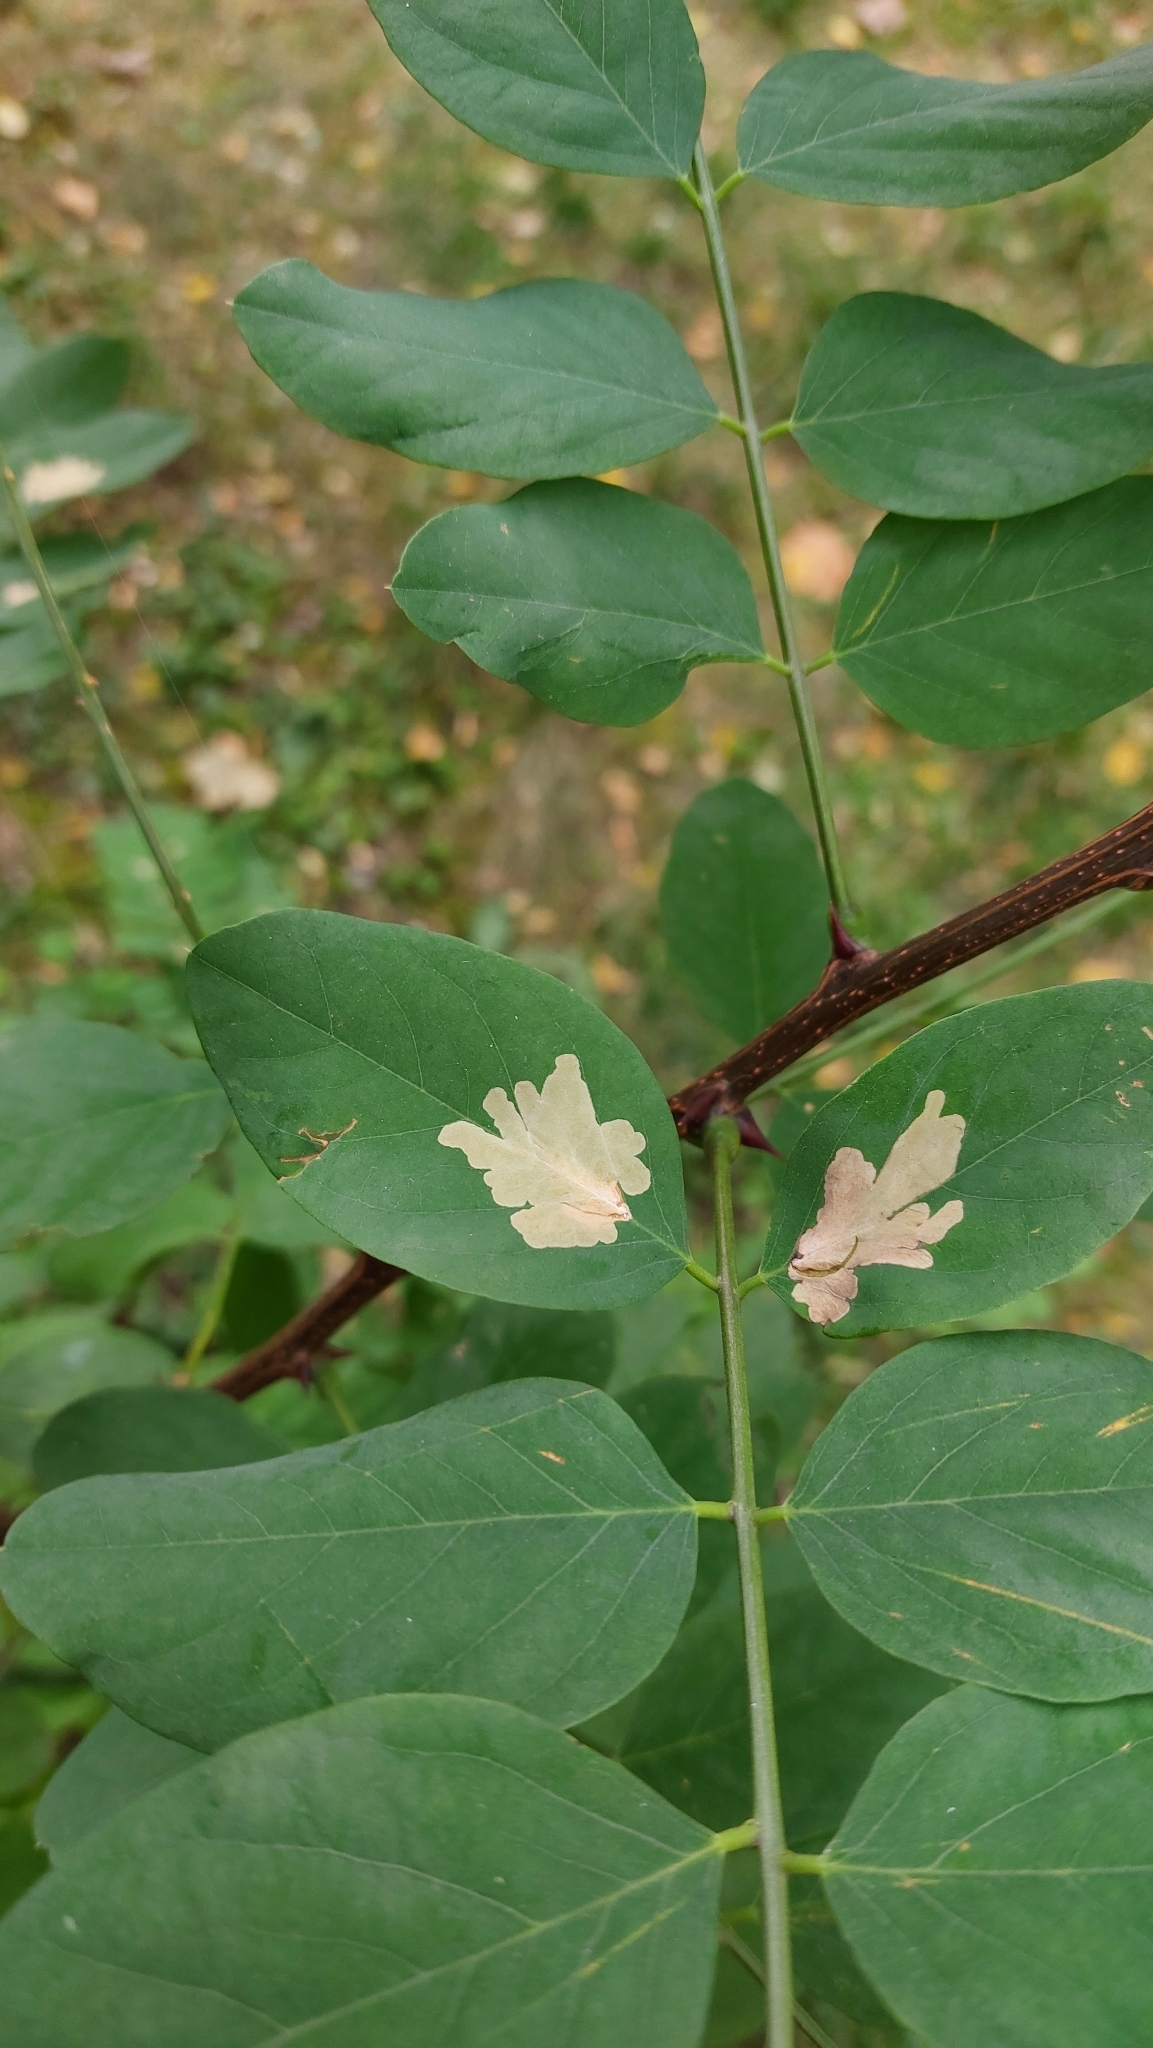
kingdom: Animalia
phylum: Arthropoda
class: Insecta
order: Lepidoptera
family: Gracillariidae
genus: Parectopa
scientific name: Parectopa robiniella
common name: Locust digitate leafminer
